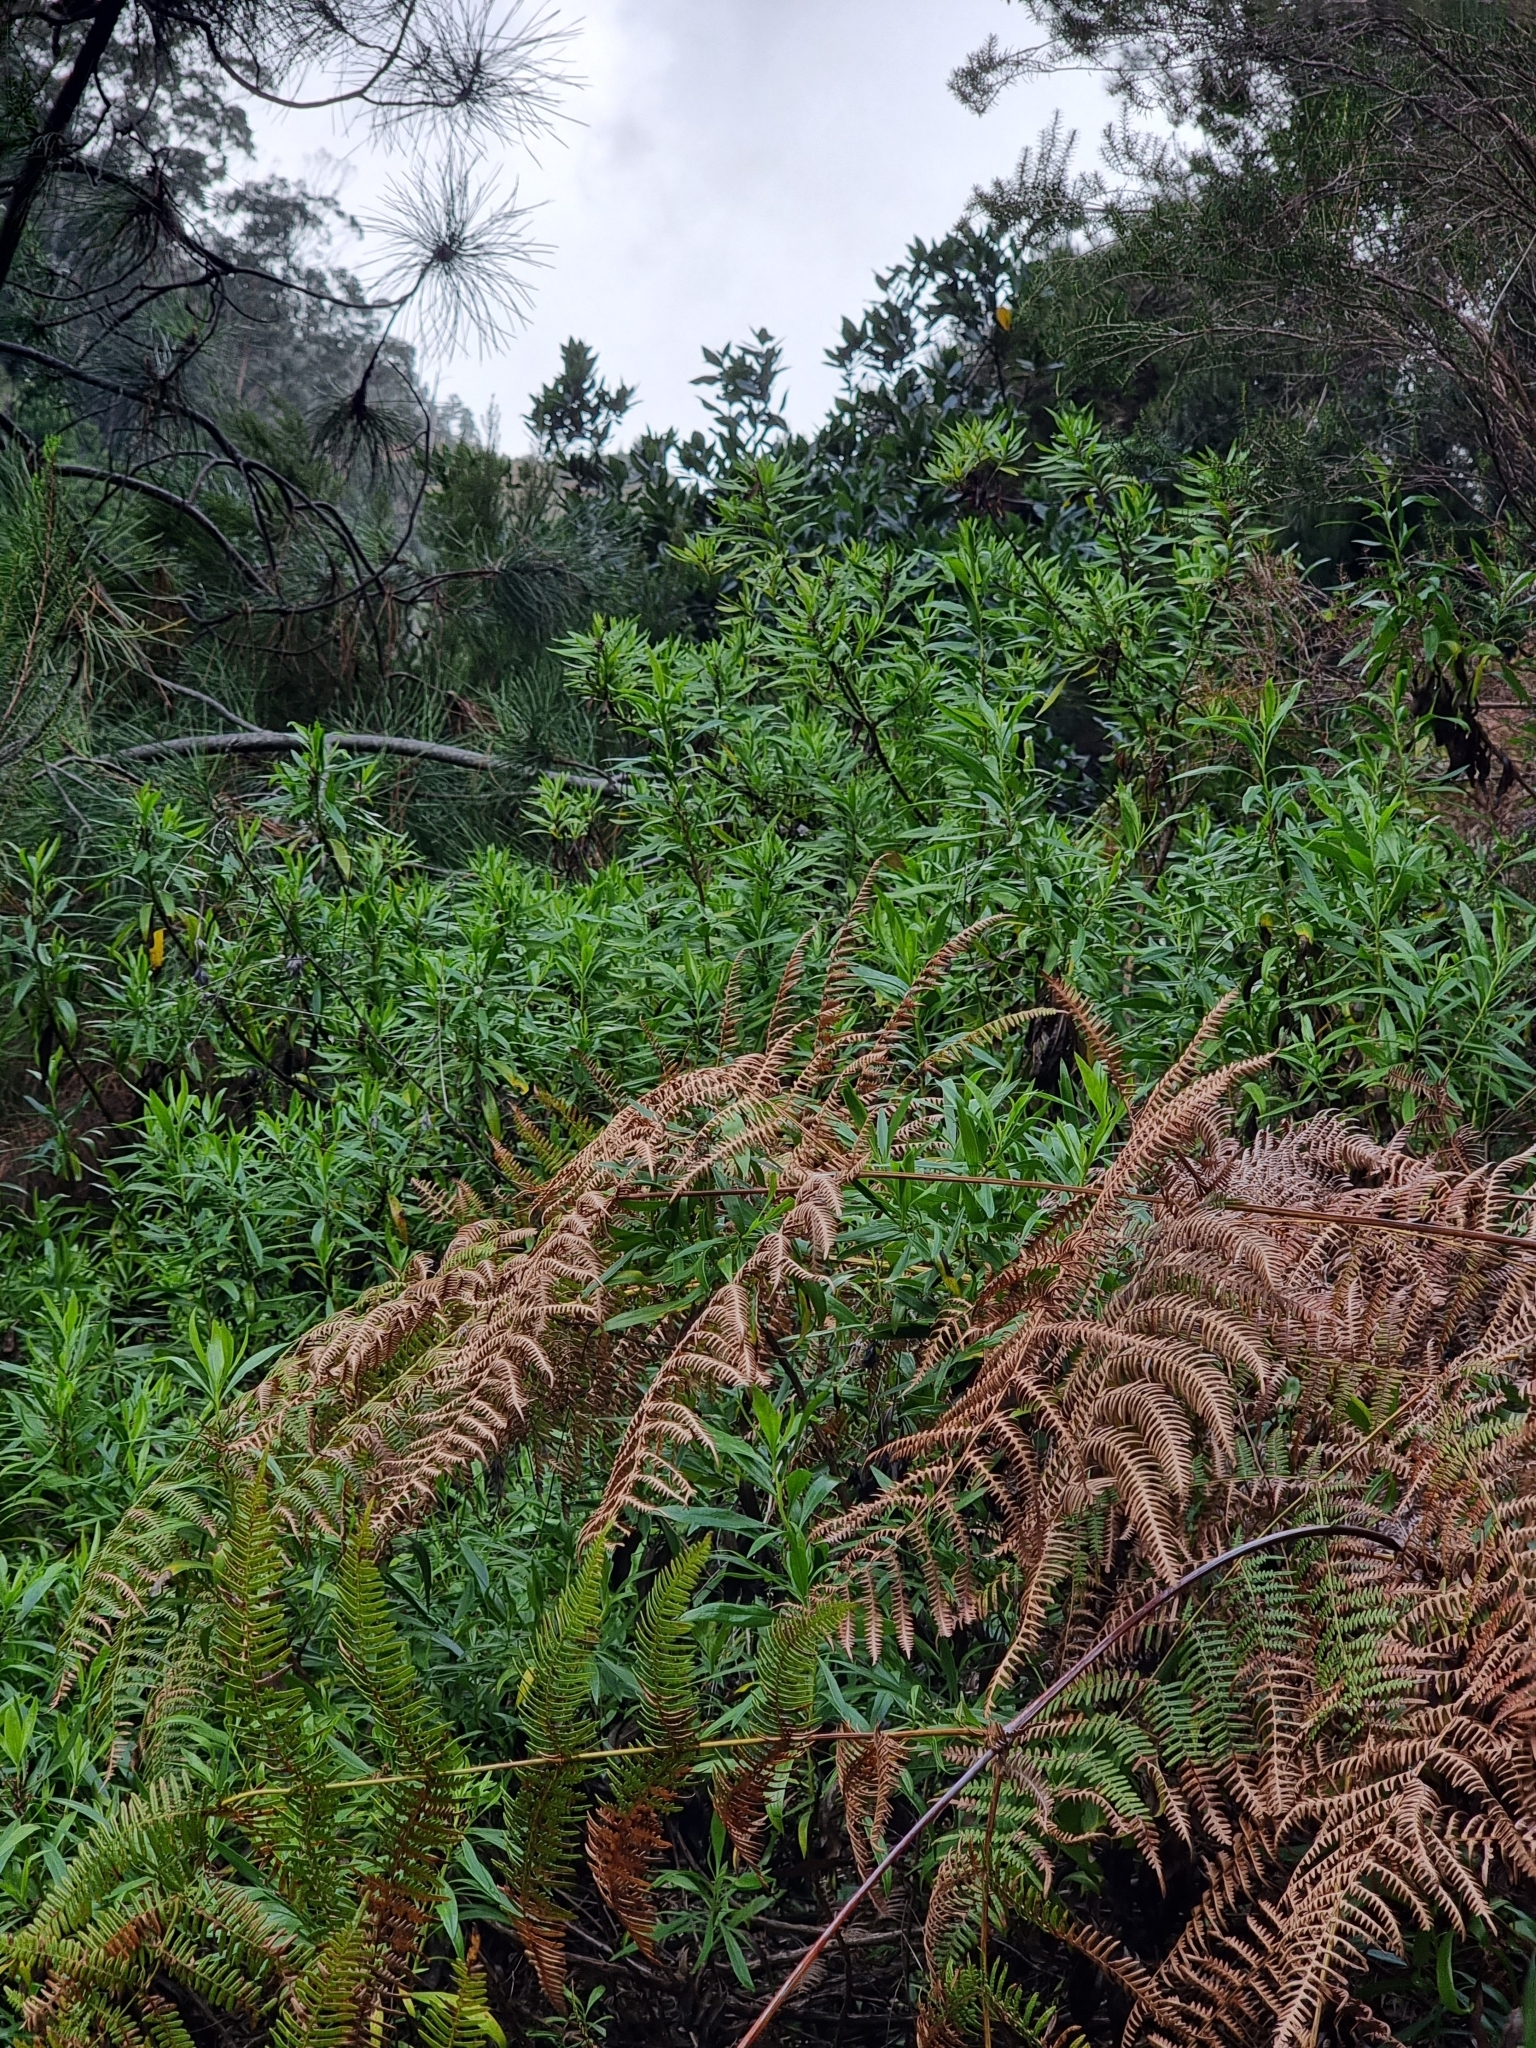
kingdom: Plantae
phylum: Tracheophyta
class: Magnoliopsida
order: Lamiales
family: Plantaginaceae
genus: Globularia
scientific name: Globularia salicina
